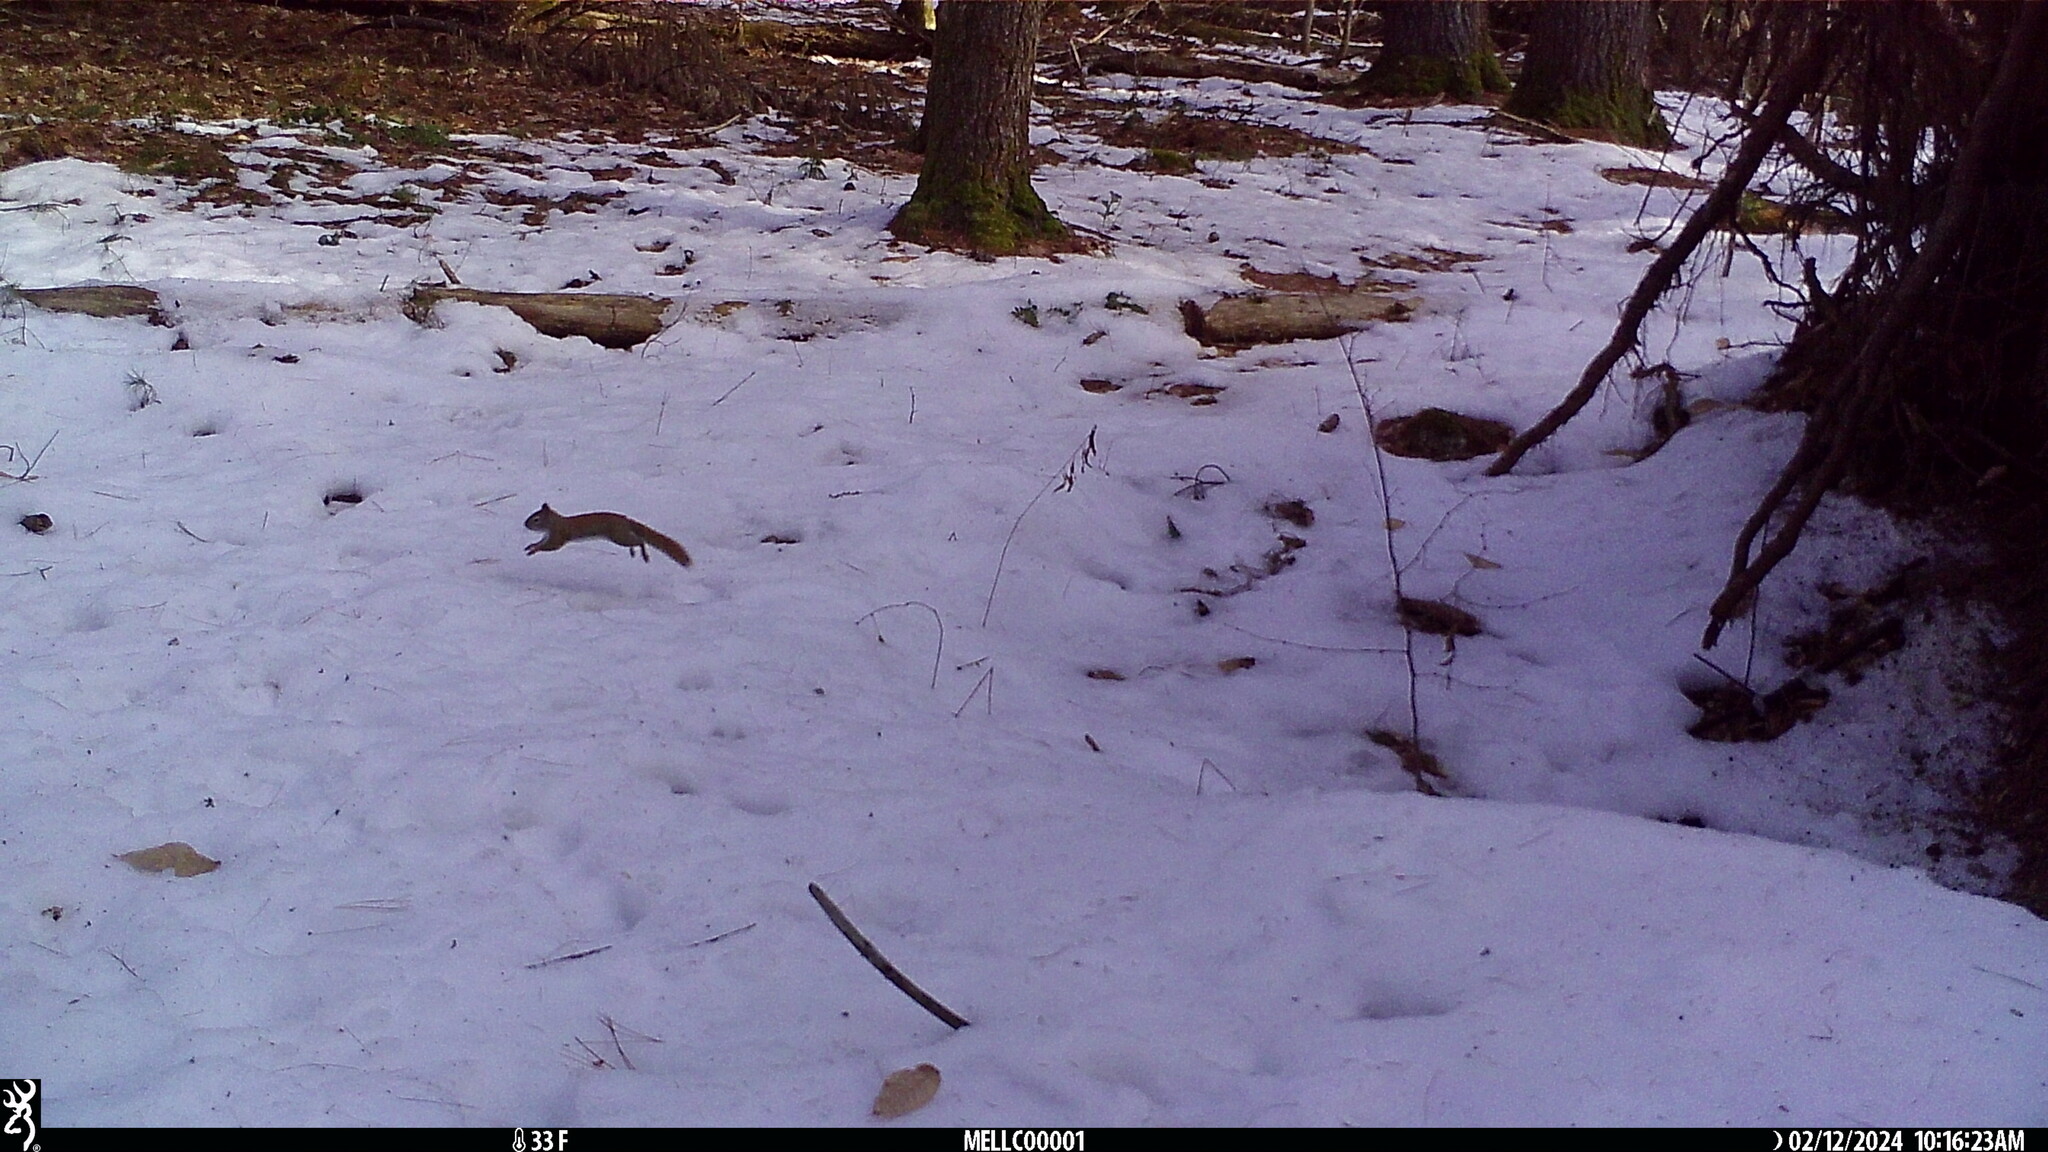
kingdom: Animalia
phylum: Chordata
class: Mammalia
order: Rodentia
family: Sciuridae
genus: Tamiasciurus
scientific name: Tamiasciurus hudsonicus
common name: Red squirrel
